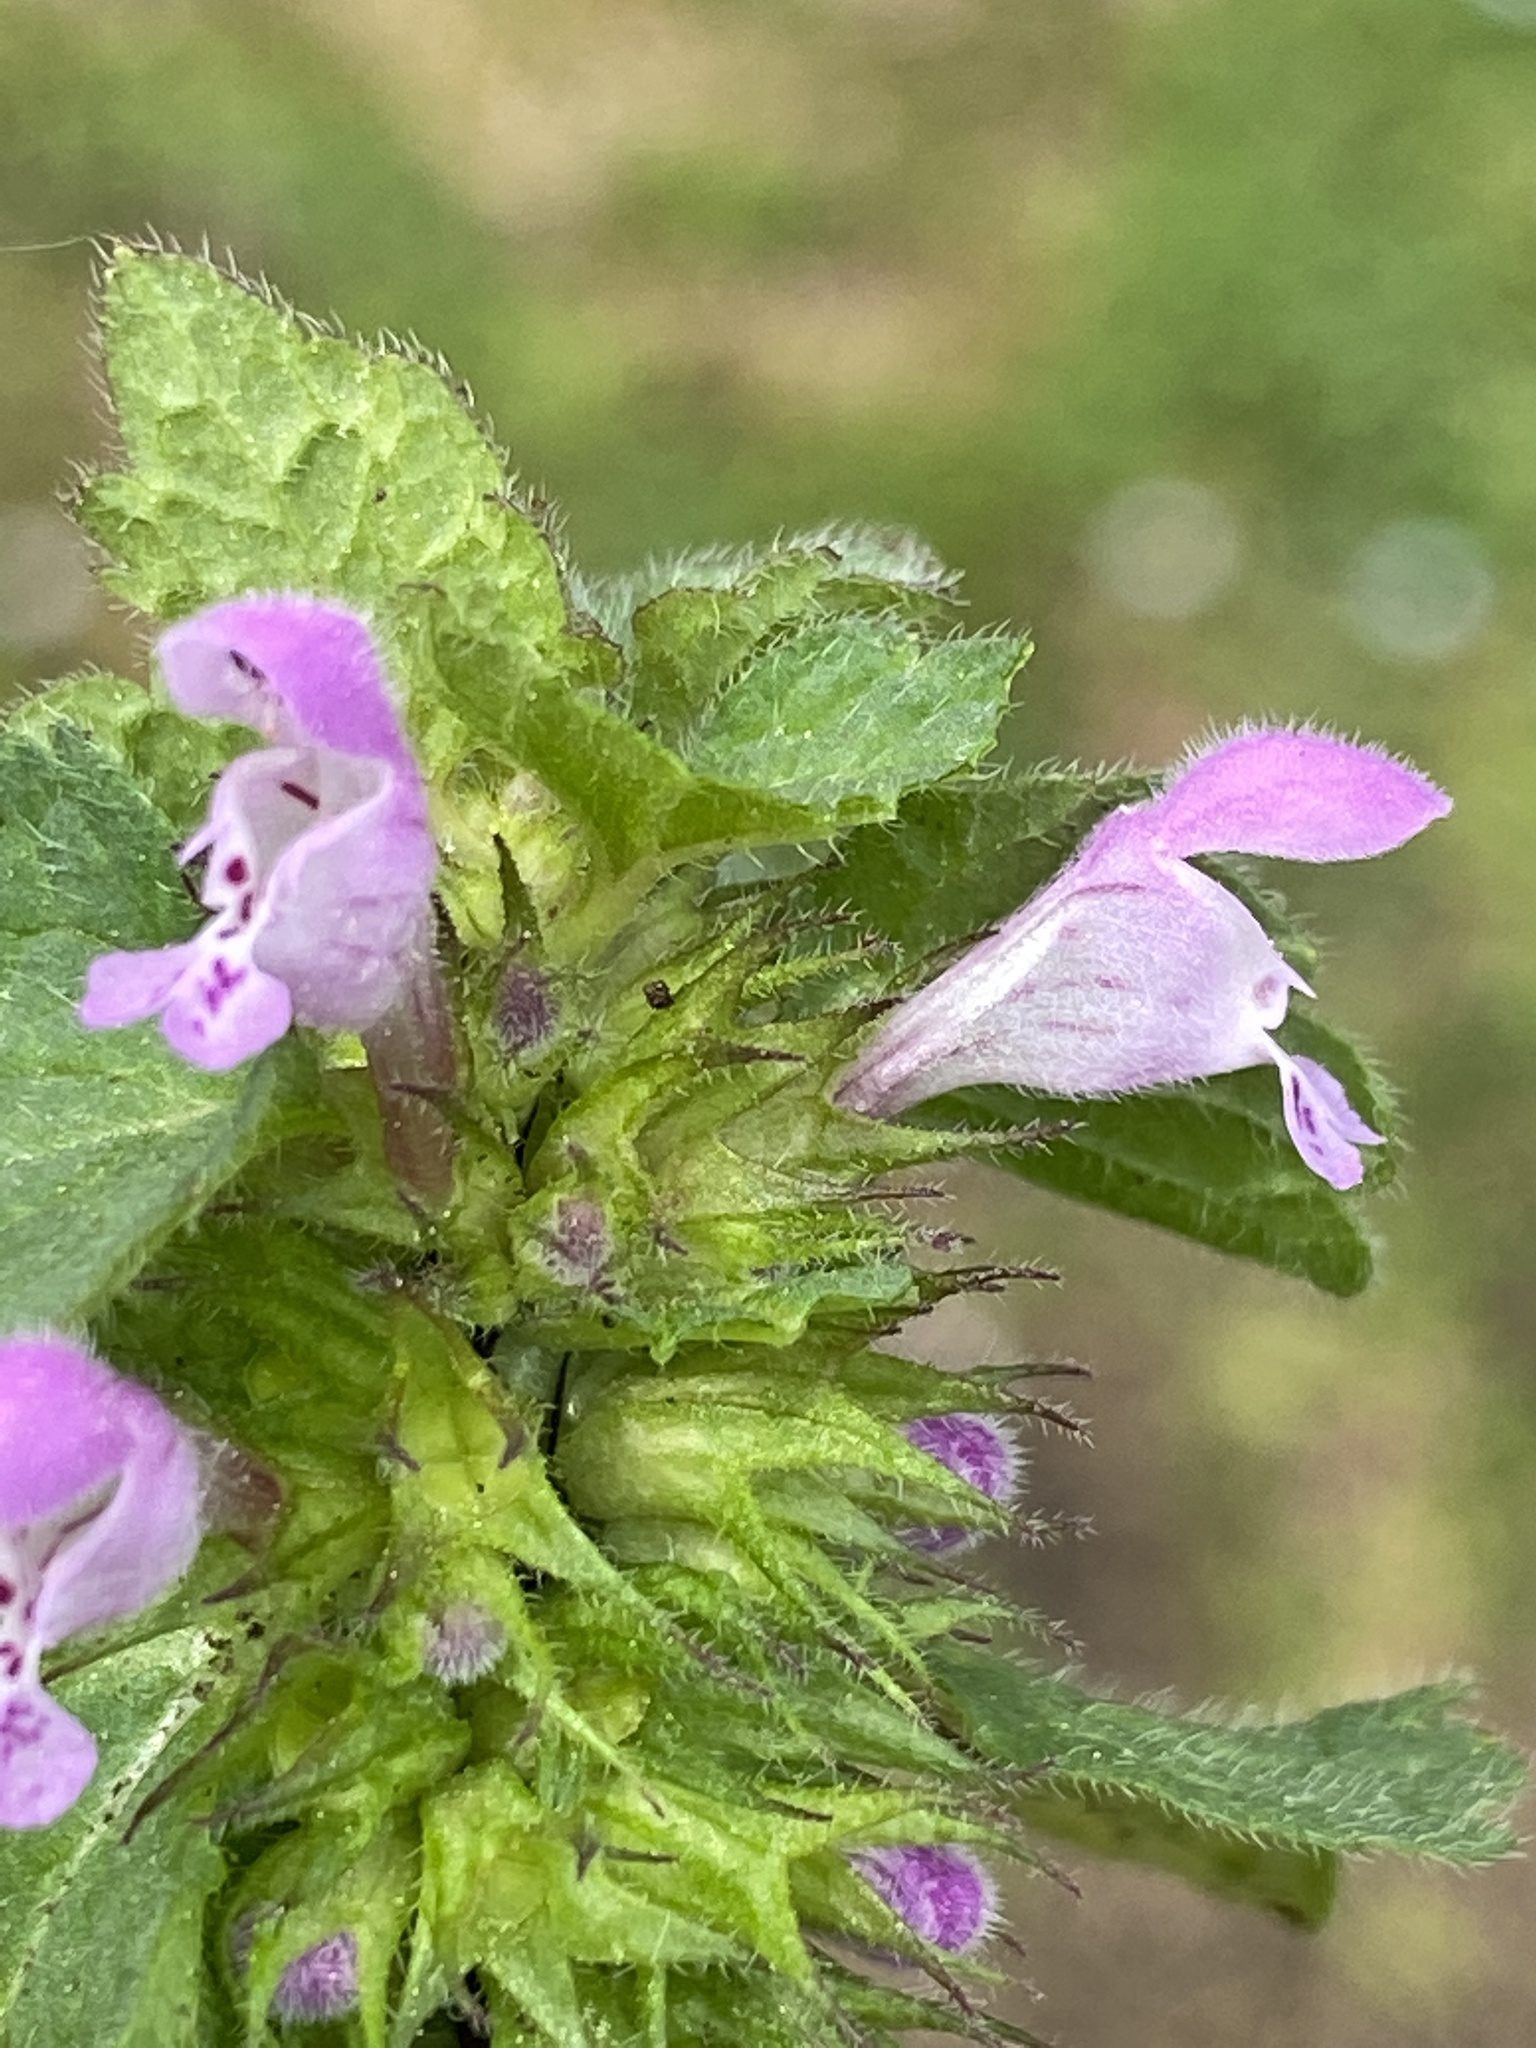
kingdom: Plantae
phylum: Tracheophyta
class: Magnoliopsida
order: Lamiales
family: Lamiaceae
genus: Lamium
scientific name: Lamium purpureum
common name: Red dead-nettle
